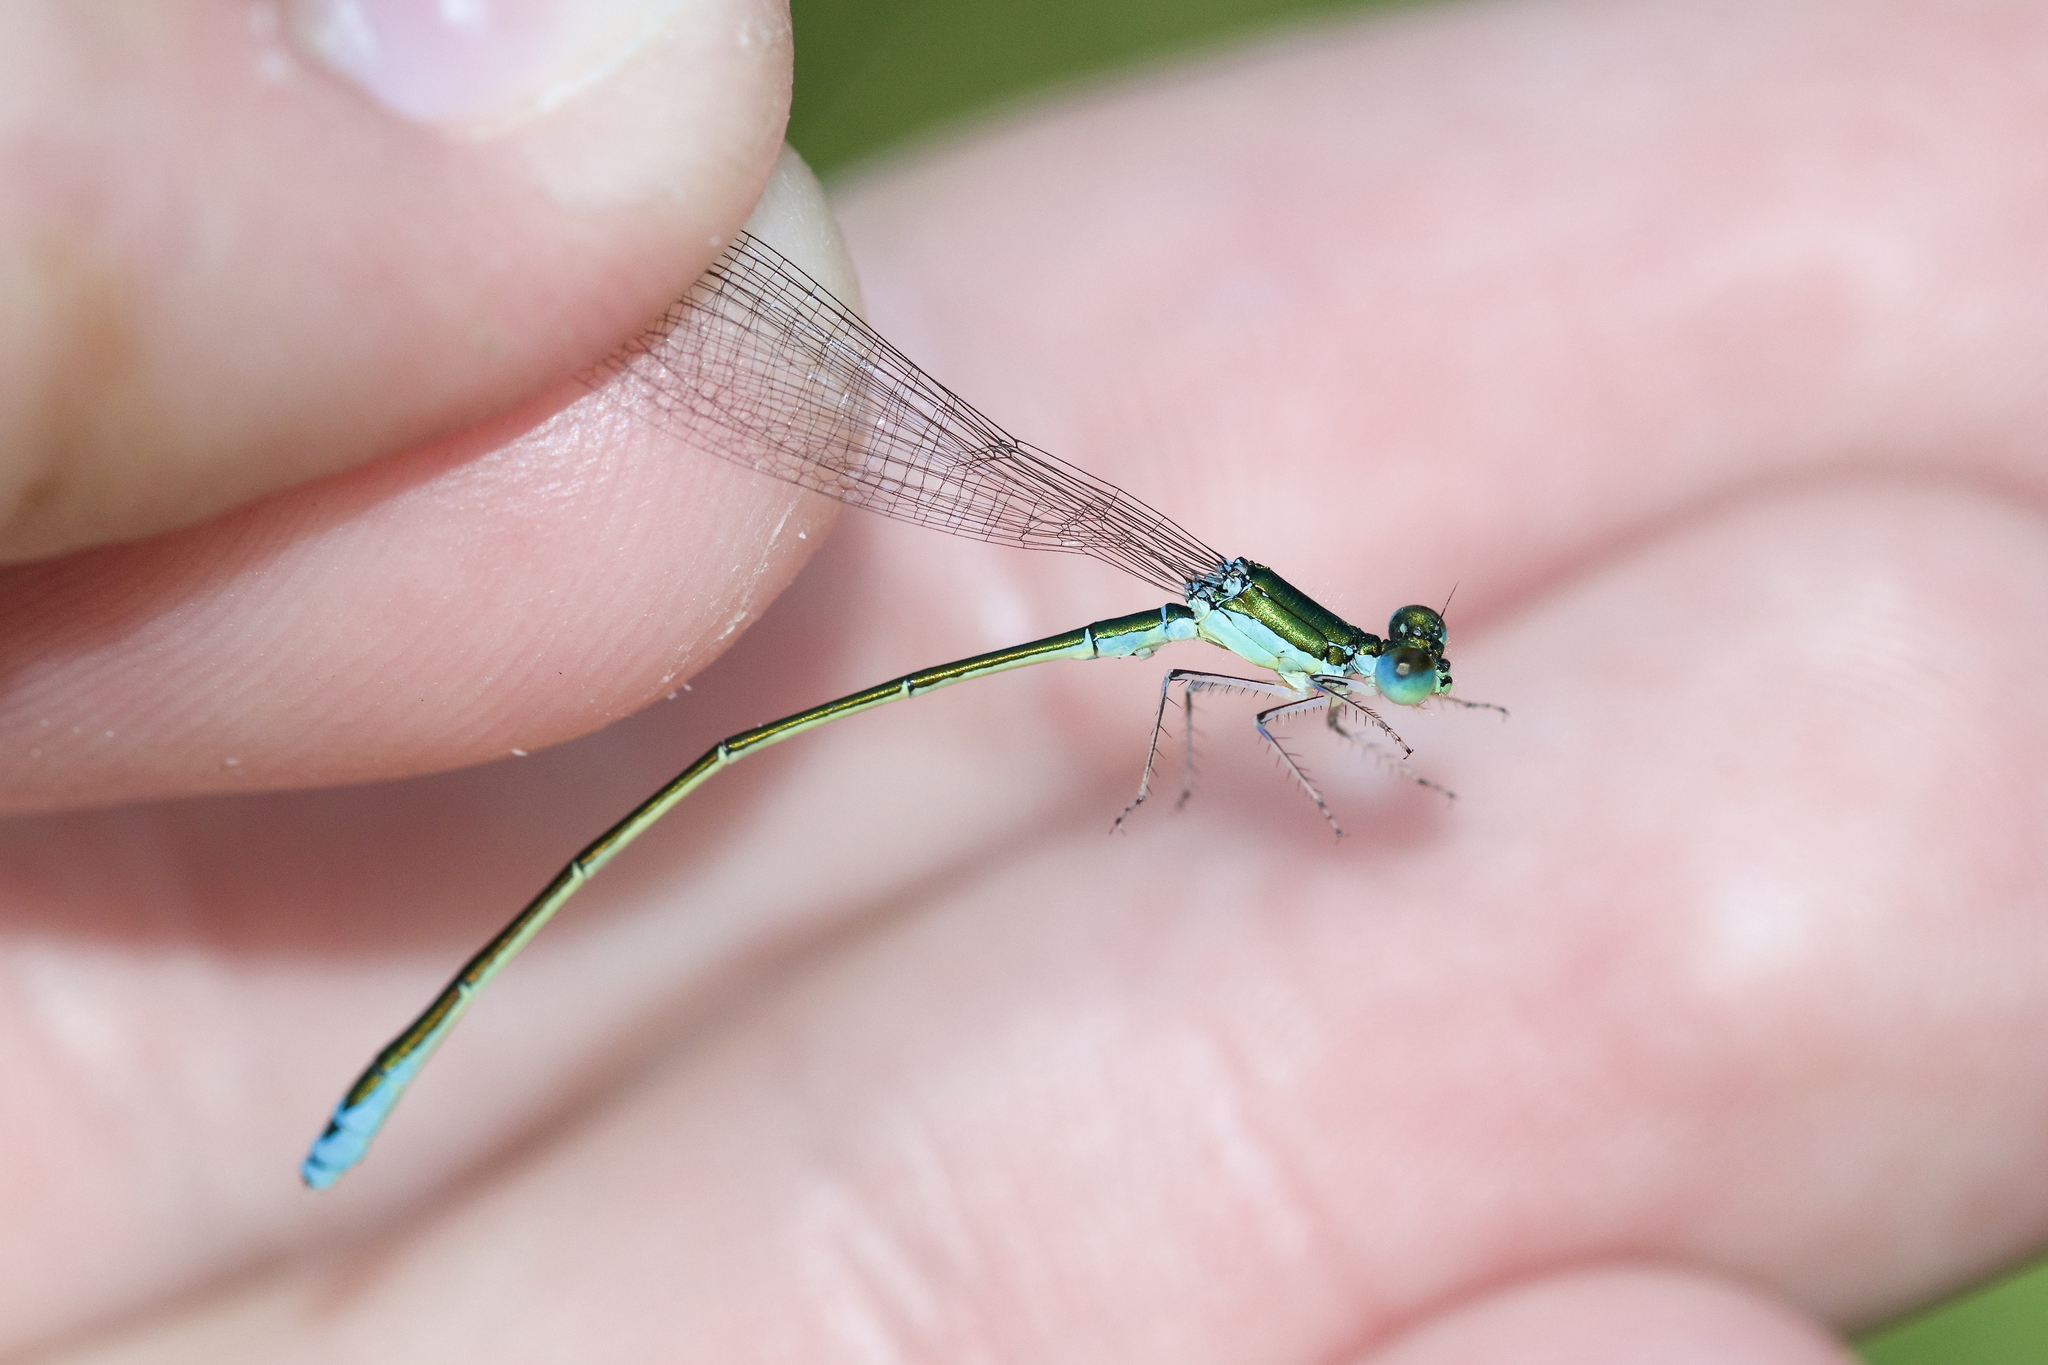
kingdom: Animalia
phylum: Arthropoda
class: Insecta
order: Odonata
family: Coenagrionidae
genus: Nehalennia
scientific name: Nehalennia irene
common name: Sedge sprite
